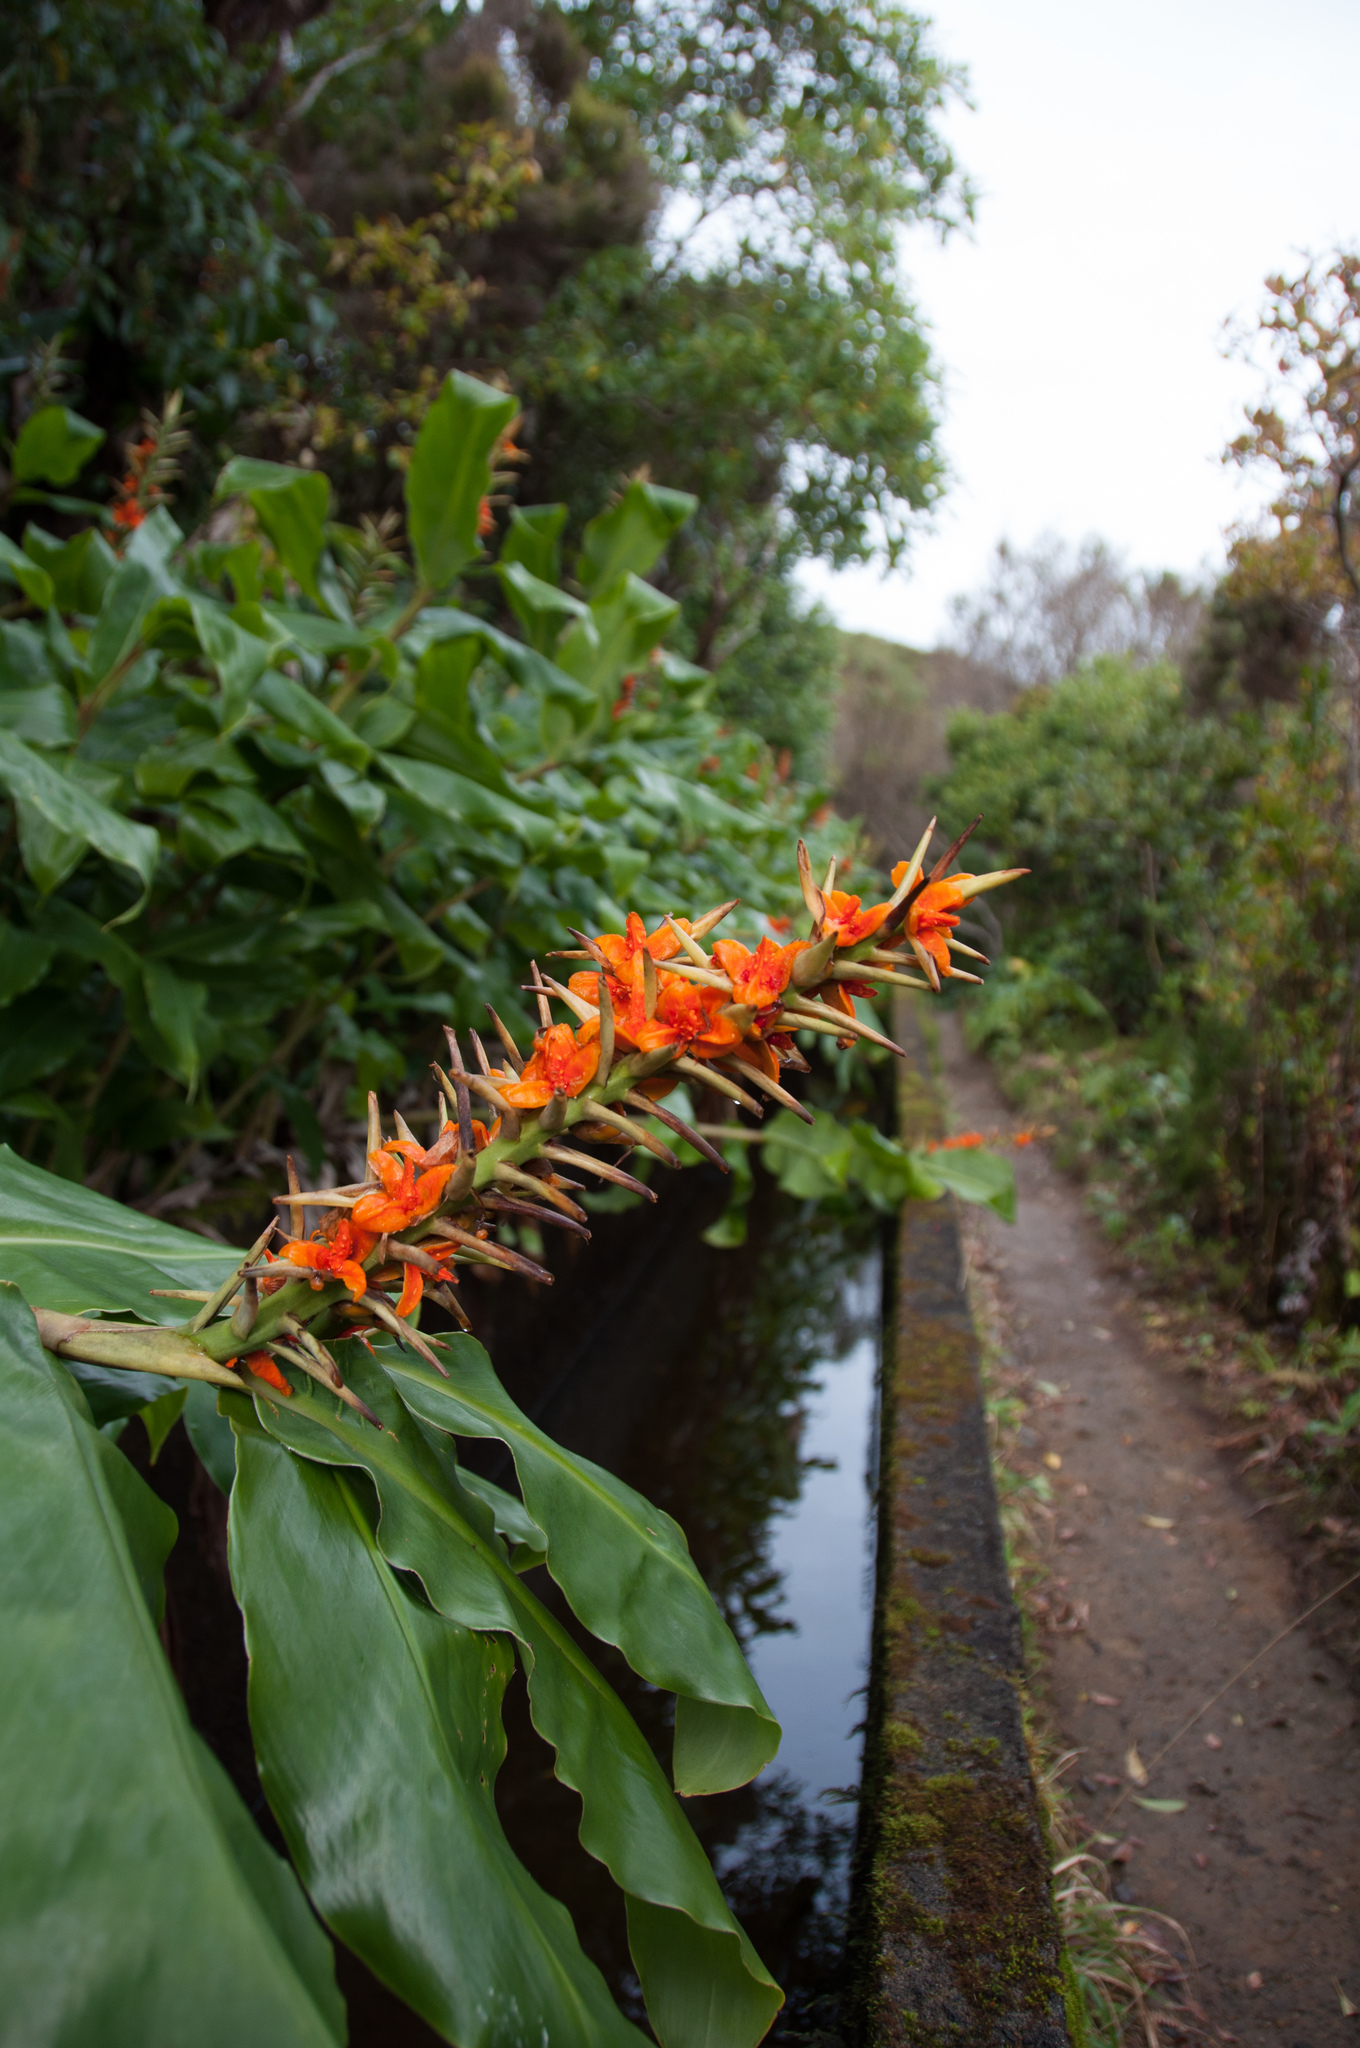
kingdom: Plantae
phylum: Tracheophyta
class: Liliopsida
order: Zingiberales
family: Zingiberaceae
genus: Hedychium
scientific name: Hedychium gardnerianum
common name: Himalayan ginger
